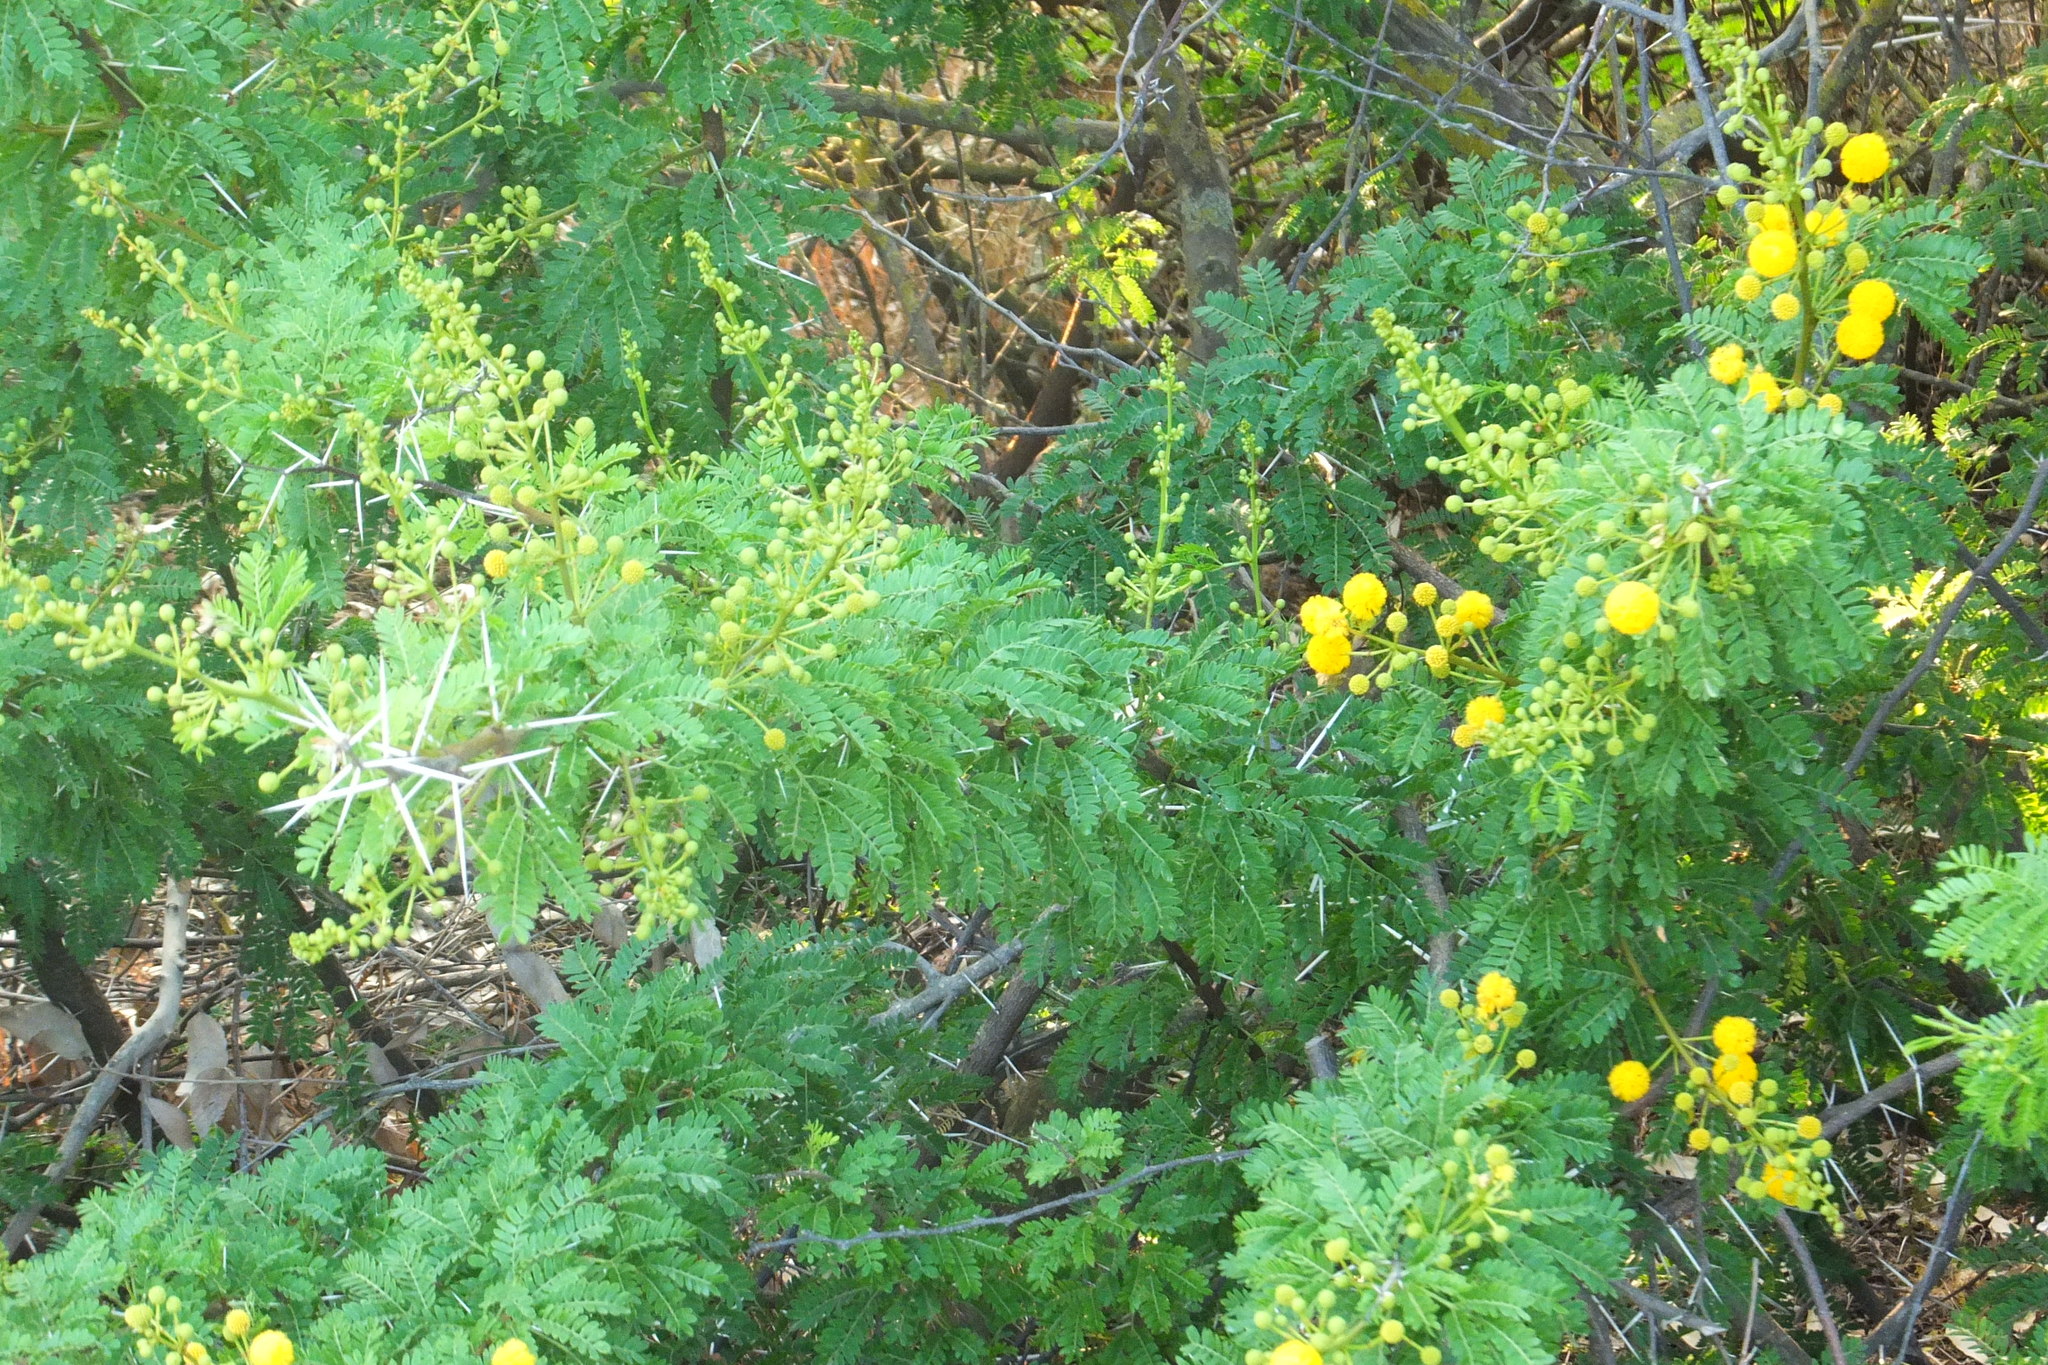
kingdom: Plantae
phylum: Tracheophyta
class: Magnoliopsida
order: Fabales
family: Fabaceae
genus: Vachellia
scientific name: Vachellia karroo
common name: Sweet thorn
